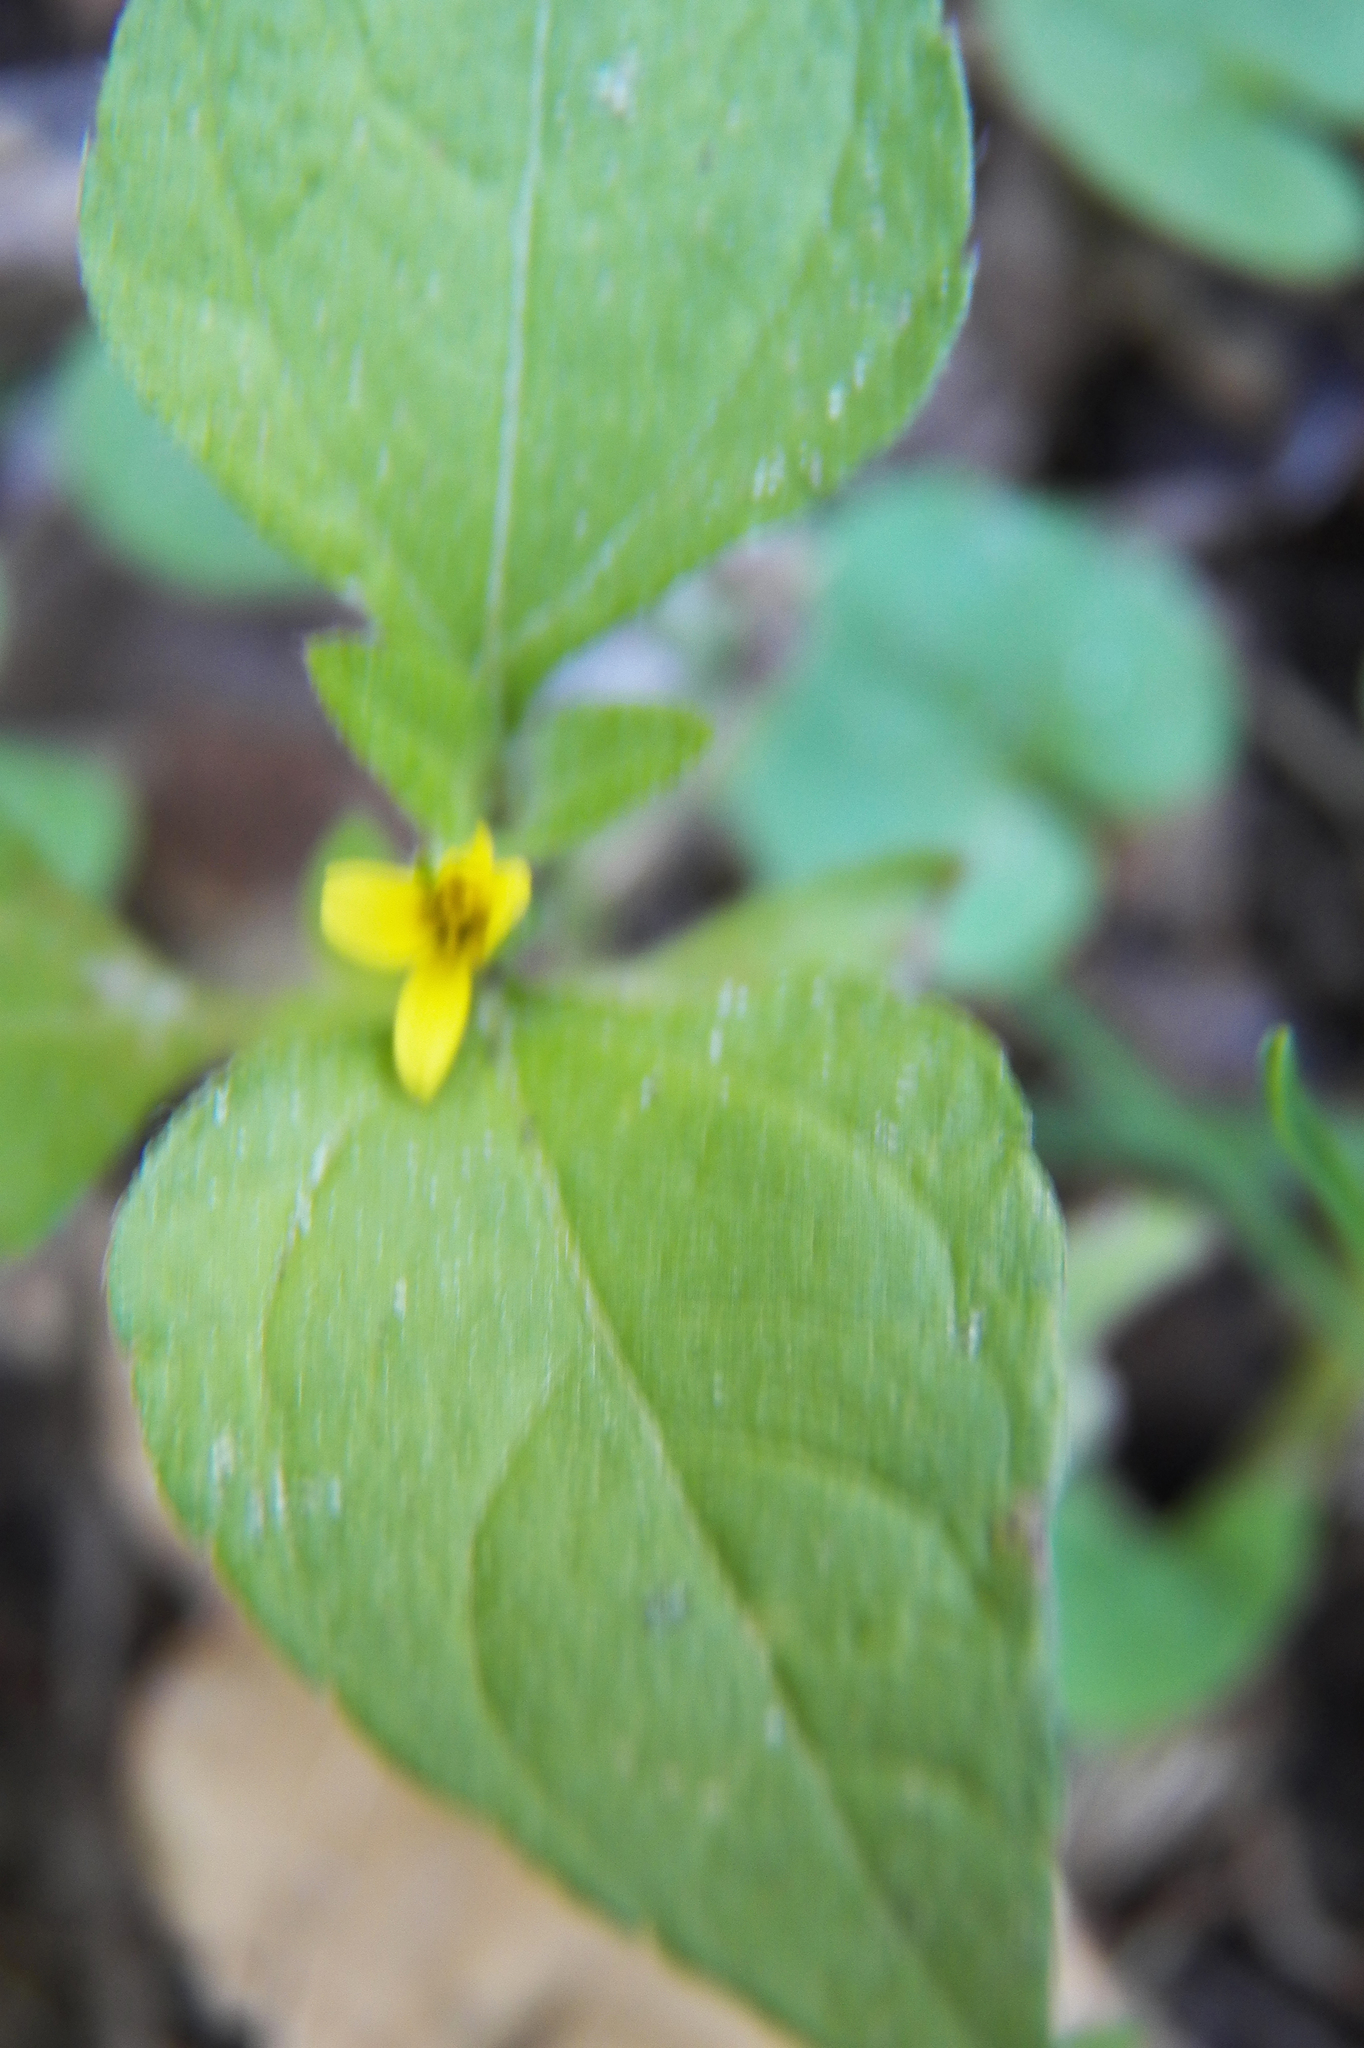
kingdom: Plantae
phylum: Tracheophyta
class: Magnoliopsida
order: Asterales
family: Asteraceae
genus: Calyptocarpus
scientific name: Calyptocarpus vialis
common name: Straggler daisy
